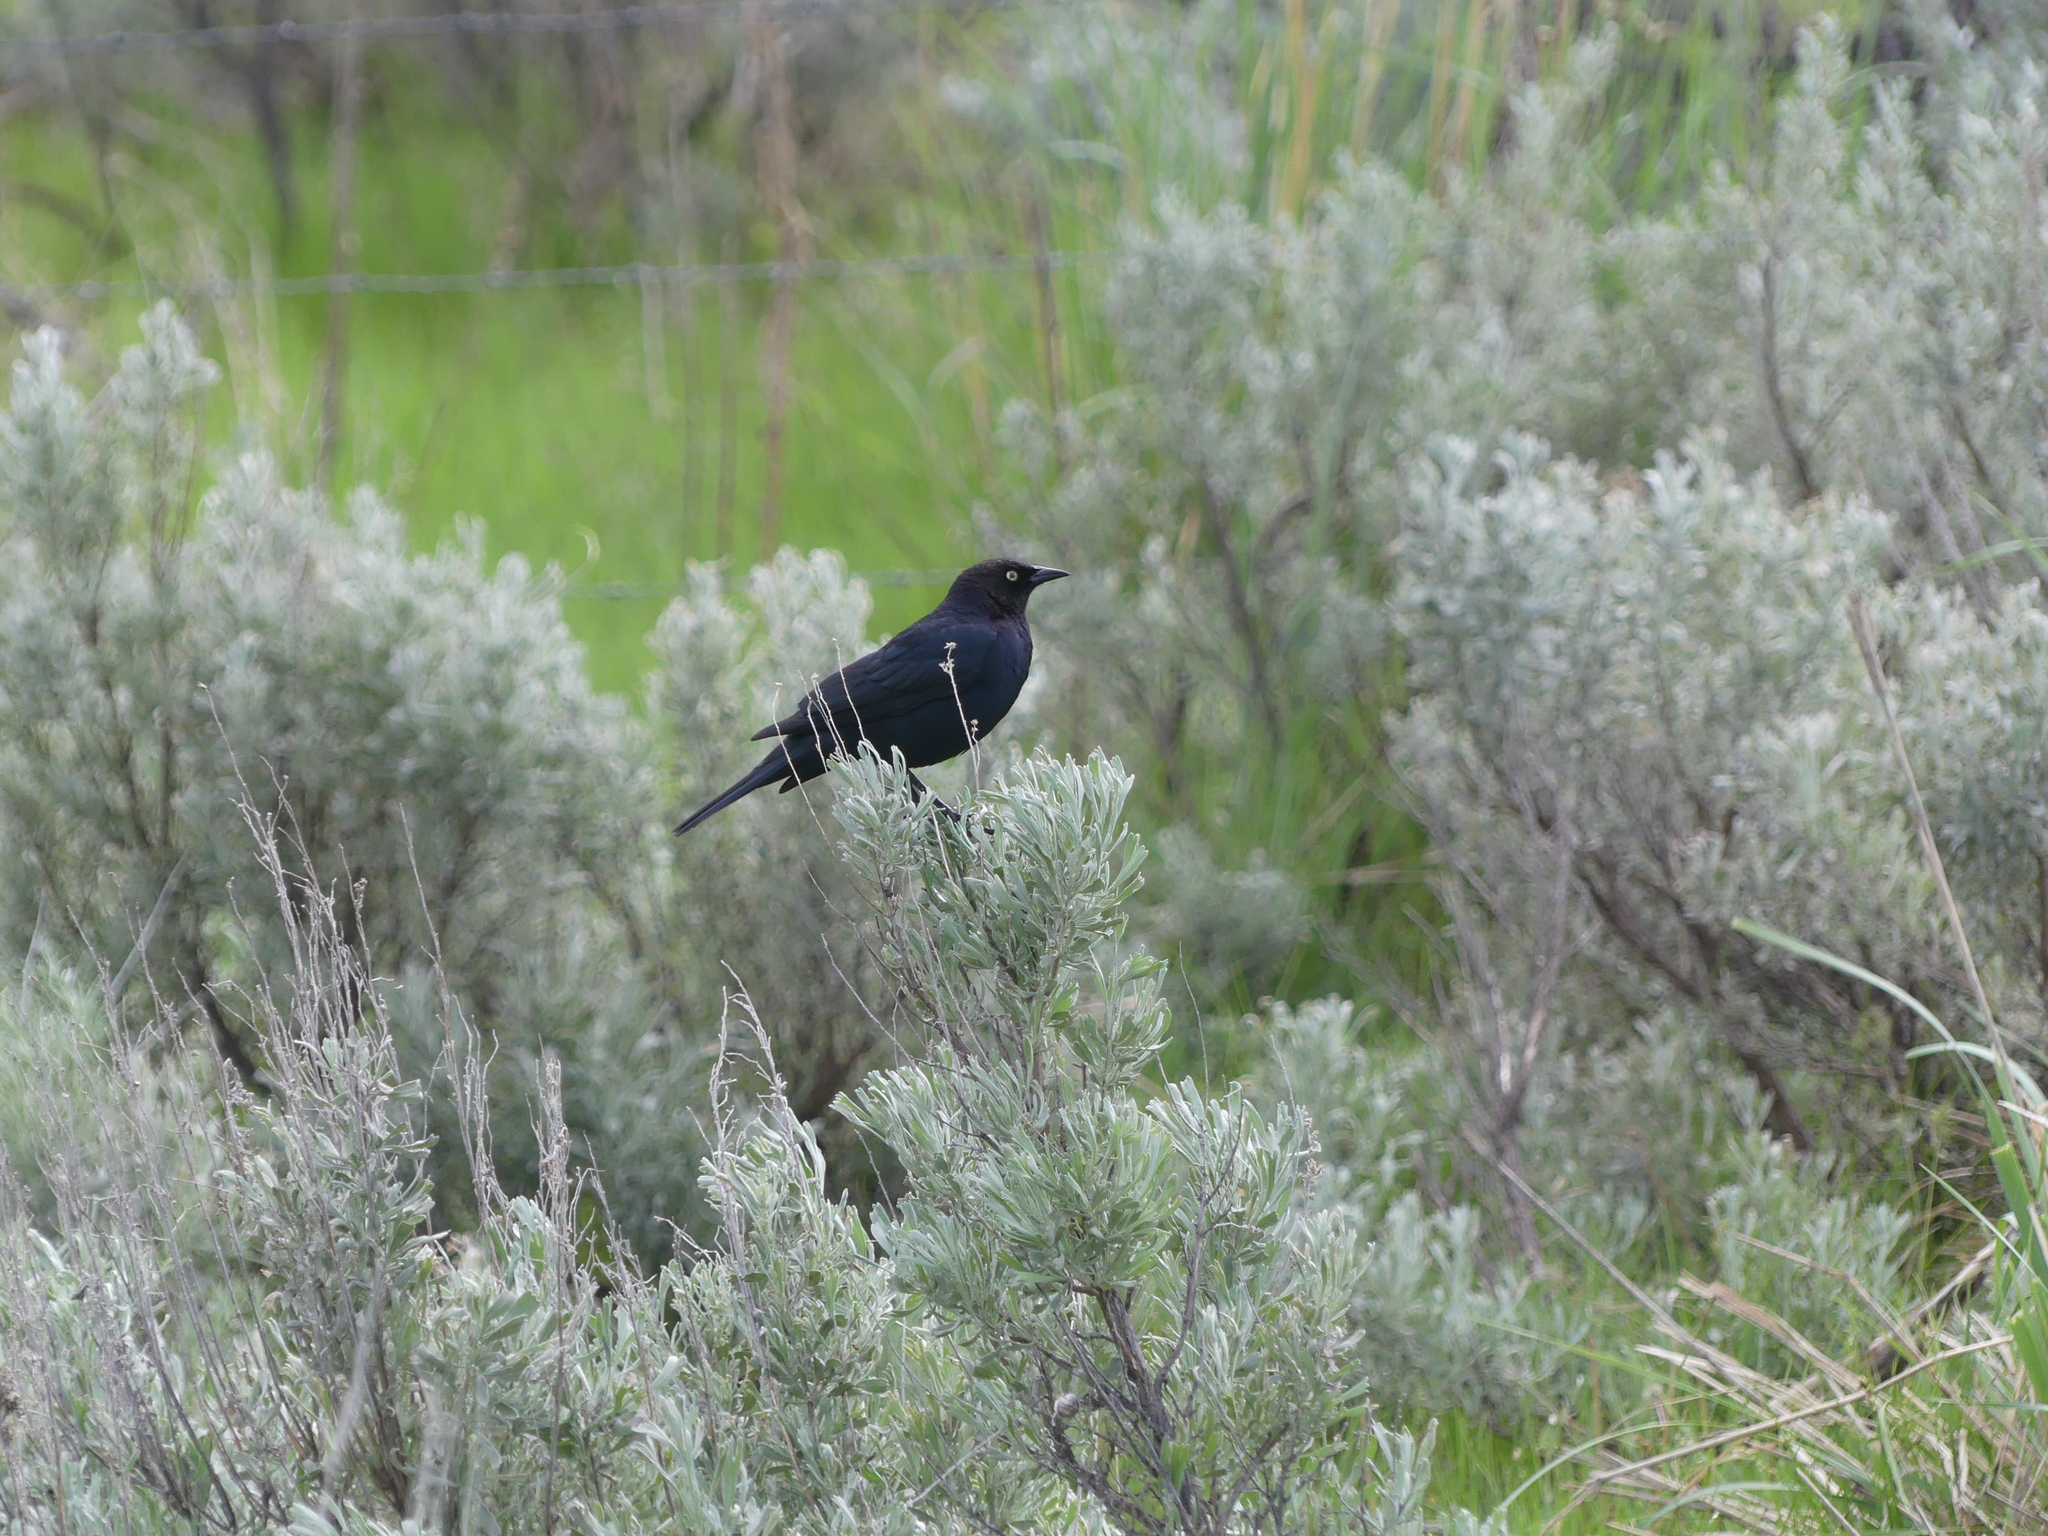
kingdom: Animalia
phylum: Chordata
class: Aves
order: Passeriformes
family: Icteridae
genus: Euphagus
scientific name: Euphagus cyanocephalus
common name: Brewer's blackbird
